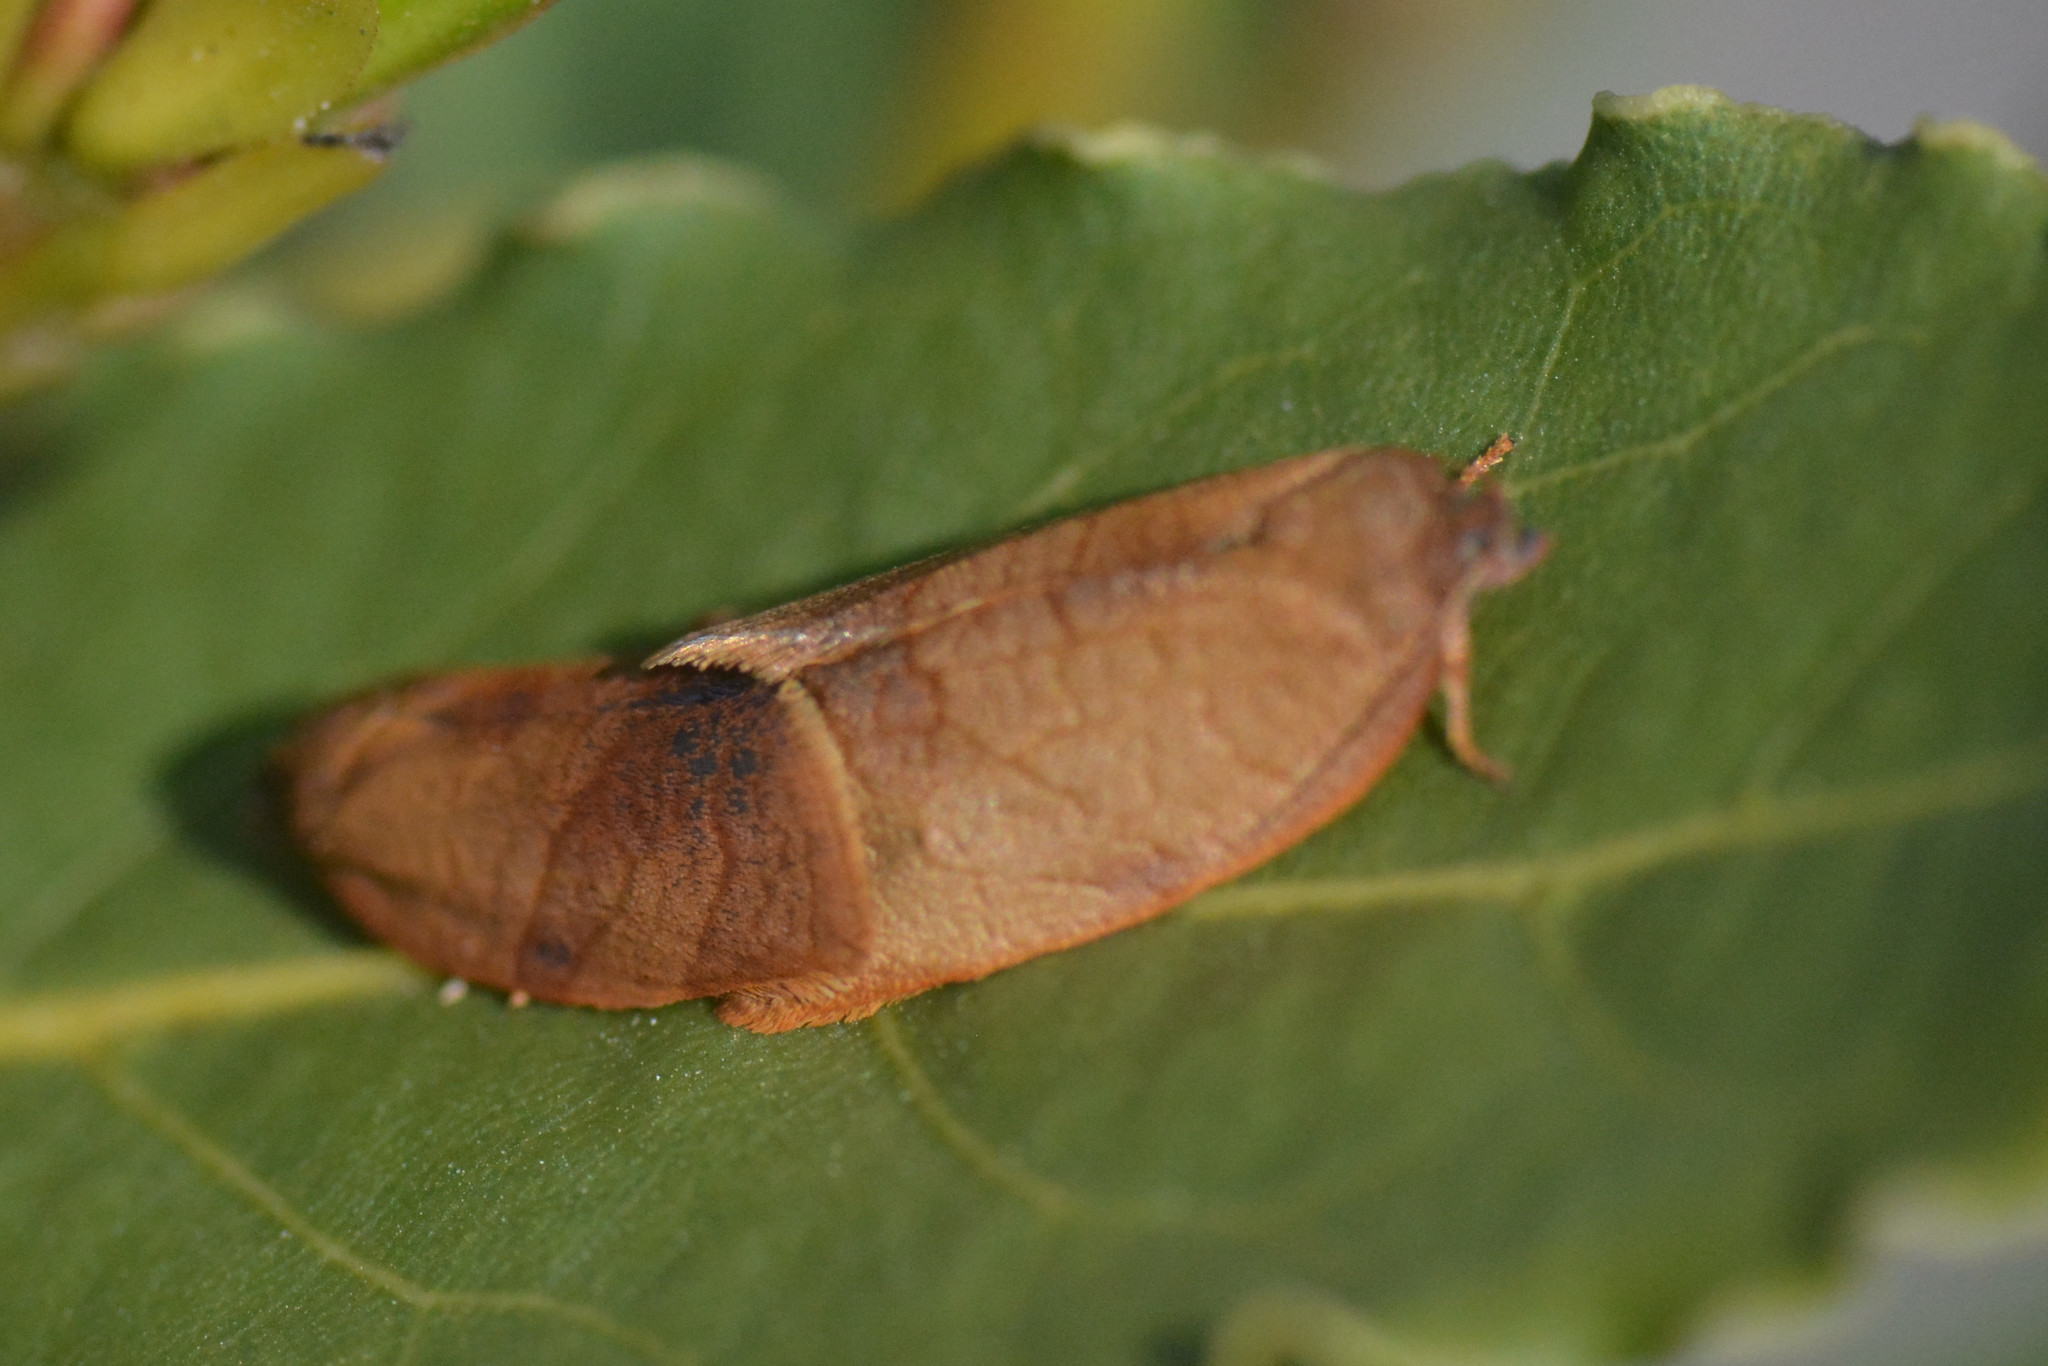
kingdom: Animalia
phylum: Arthropoda
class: Insecta
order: Lepidoptera
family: Tortricidae
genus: Cacoecimorpha
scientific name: Cacoecimorpha pronubana
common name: Carnation tortrix
